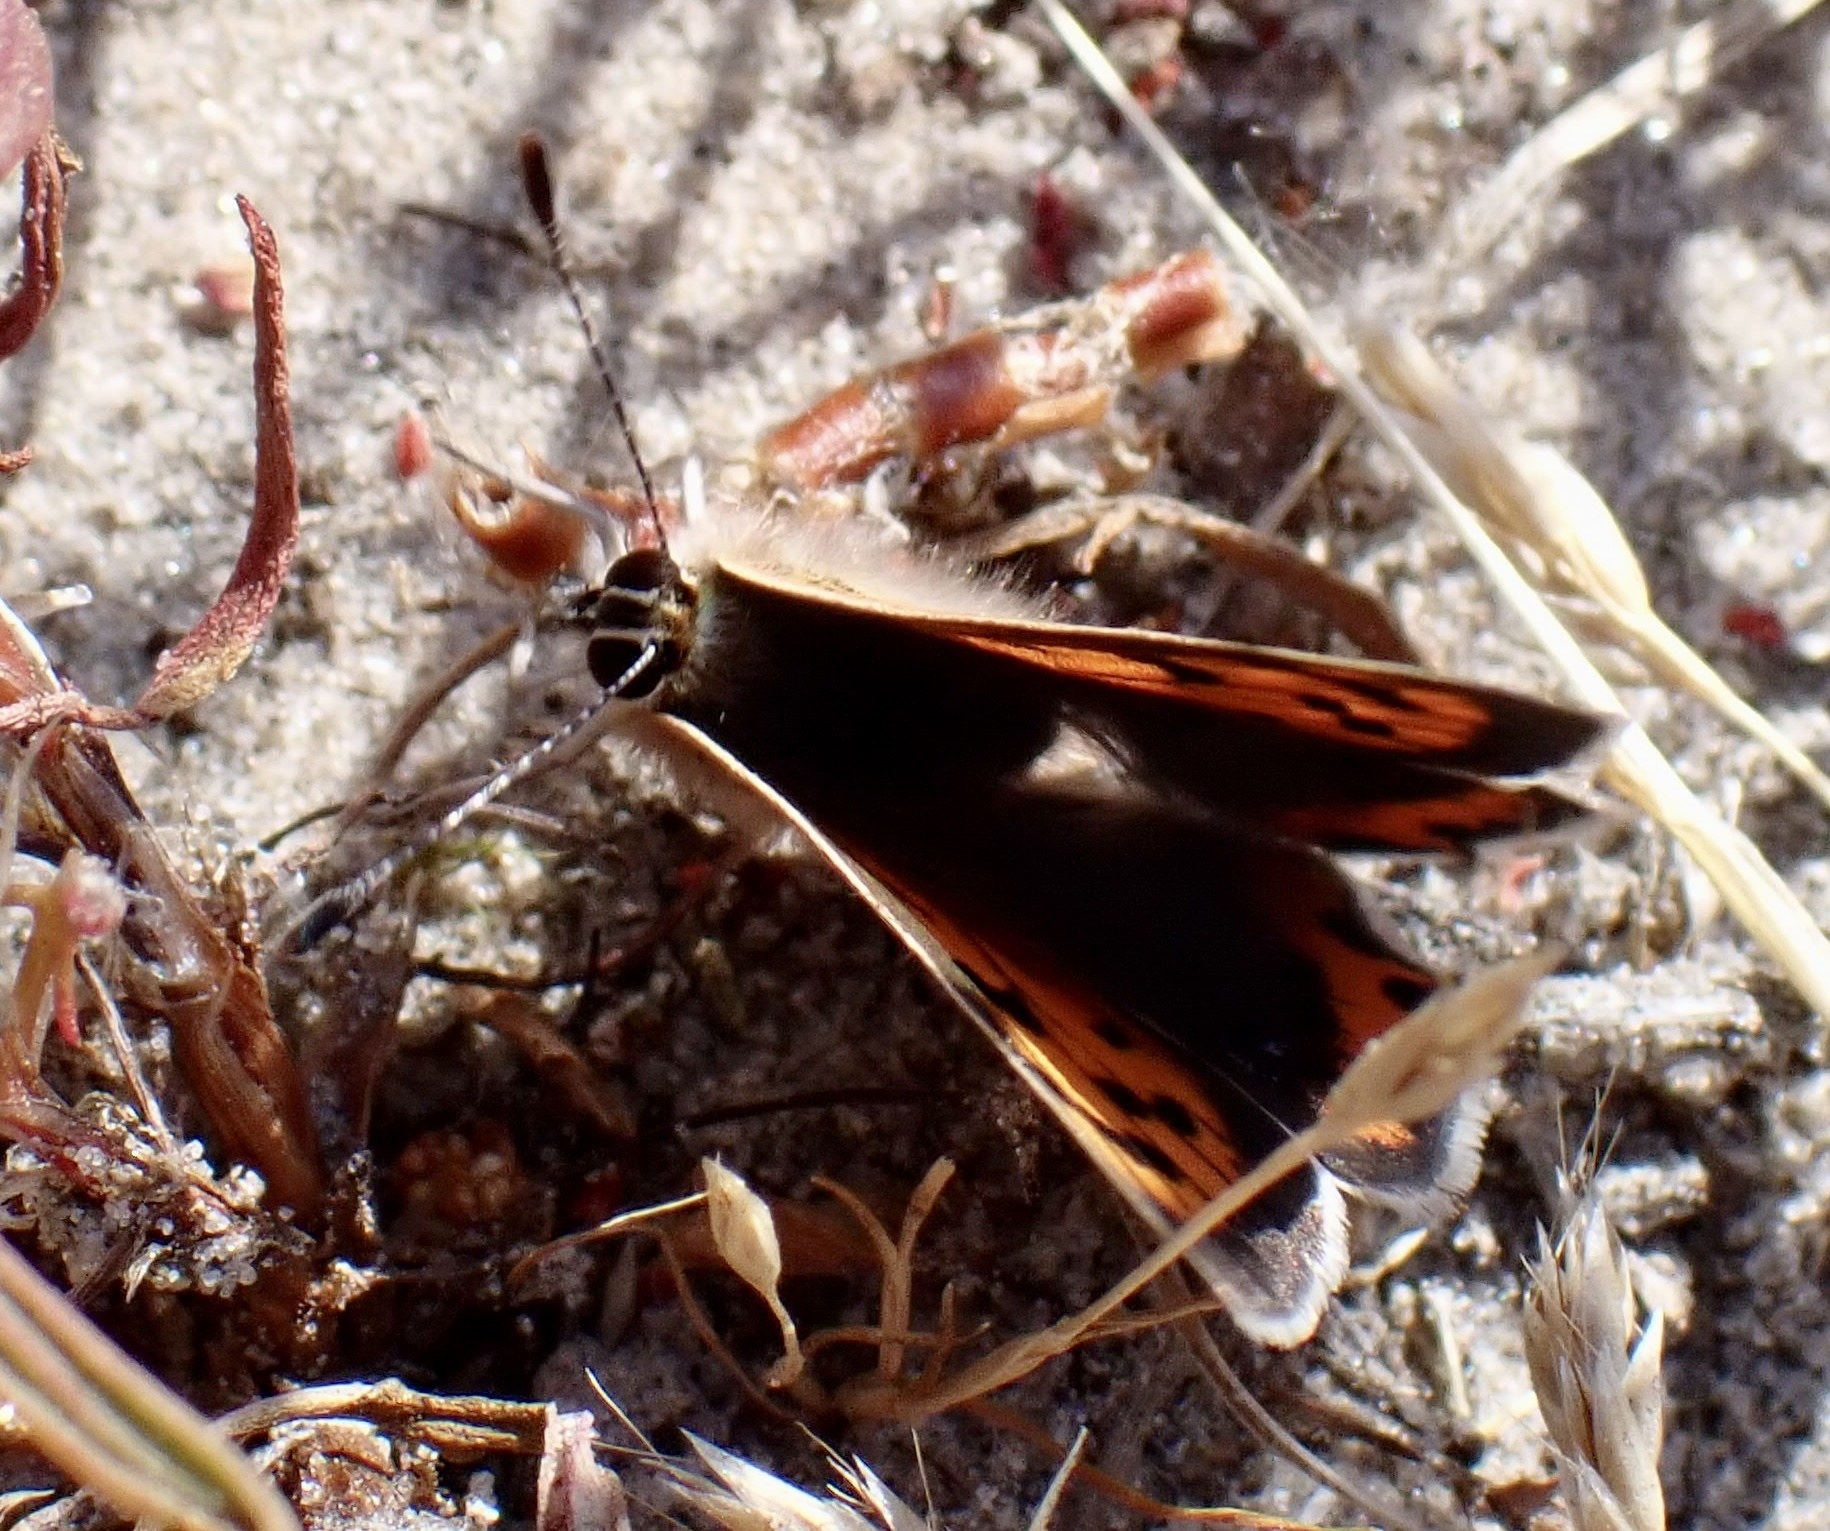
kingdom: Animalia
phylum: Arthropoda
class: Insecta
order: Lepidoptera
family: Lycaenidae
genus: Lycaena
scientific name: Lycaena phlaeas
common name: Small copper
